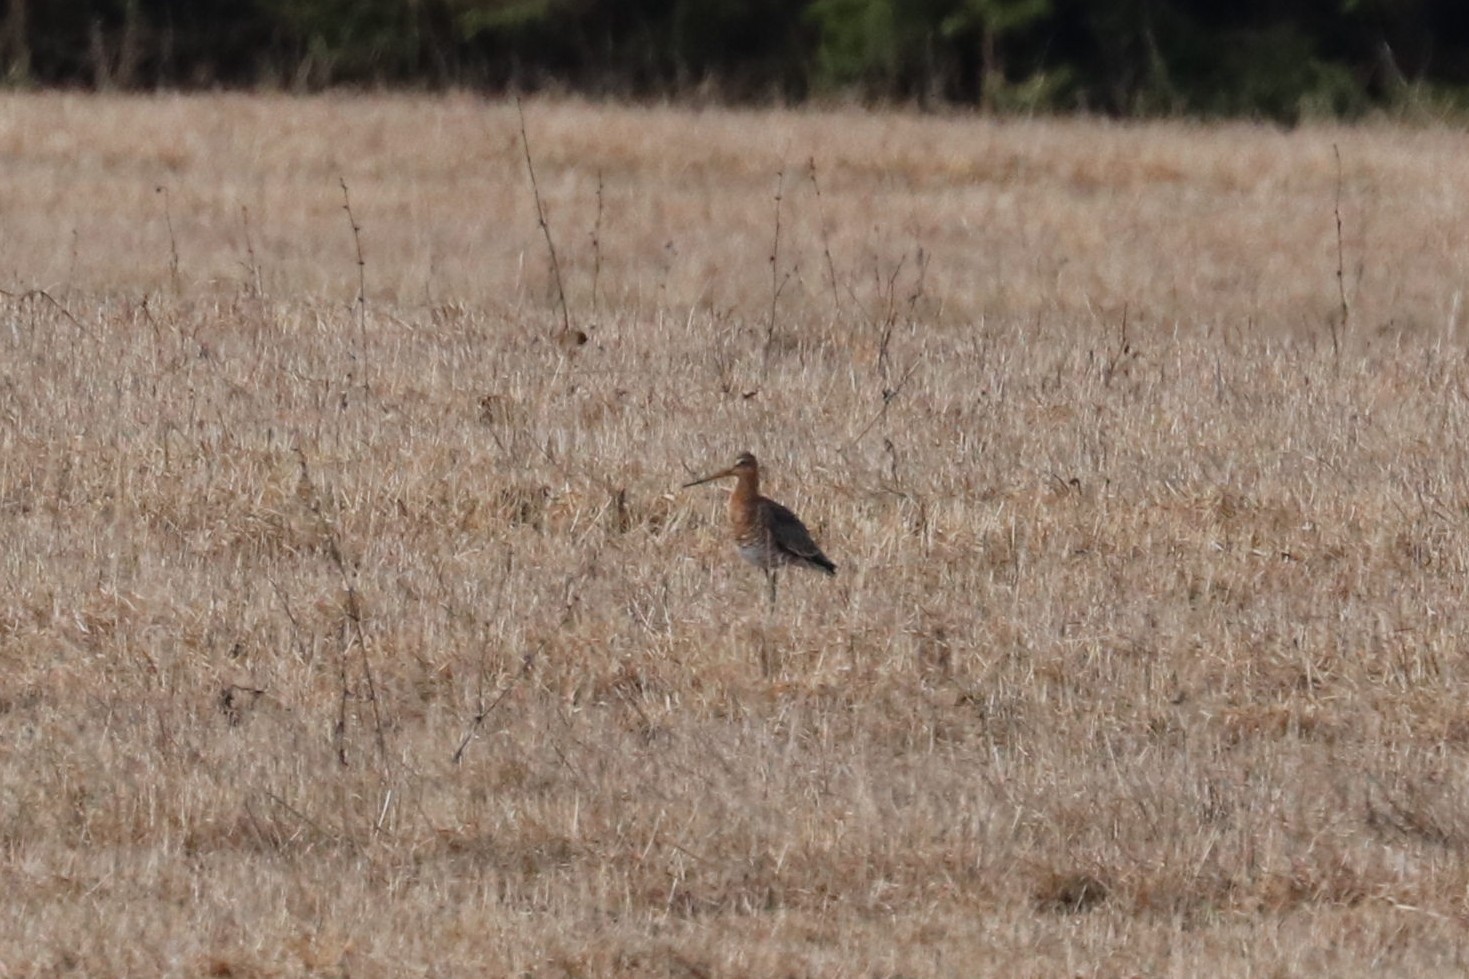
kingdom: Animalia
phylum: Chordata
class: Aves
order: Charadriiformes
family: Scolopacidae
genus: Limosa
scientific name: Limosa limosa
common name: Black-tailed godwit
